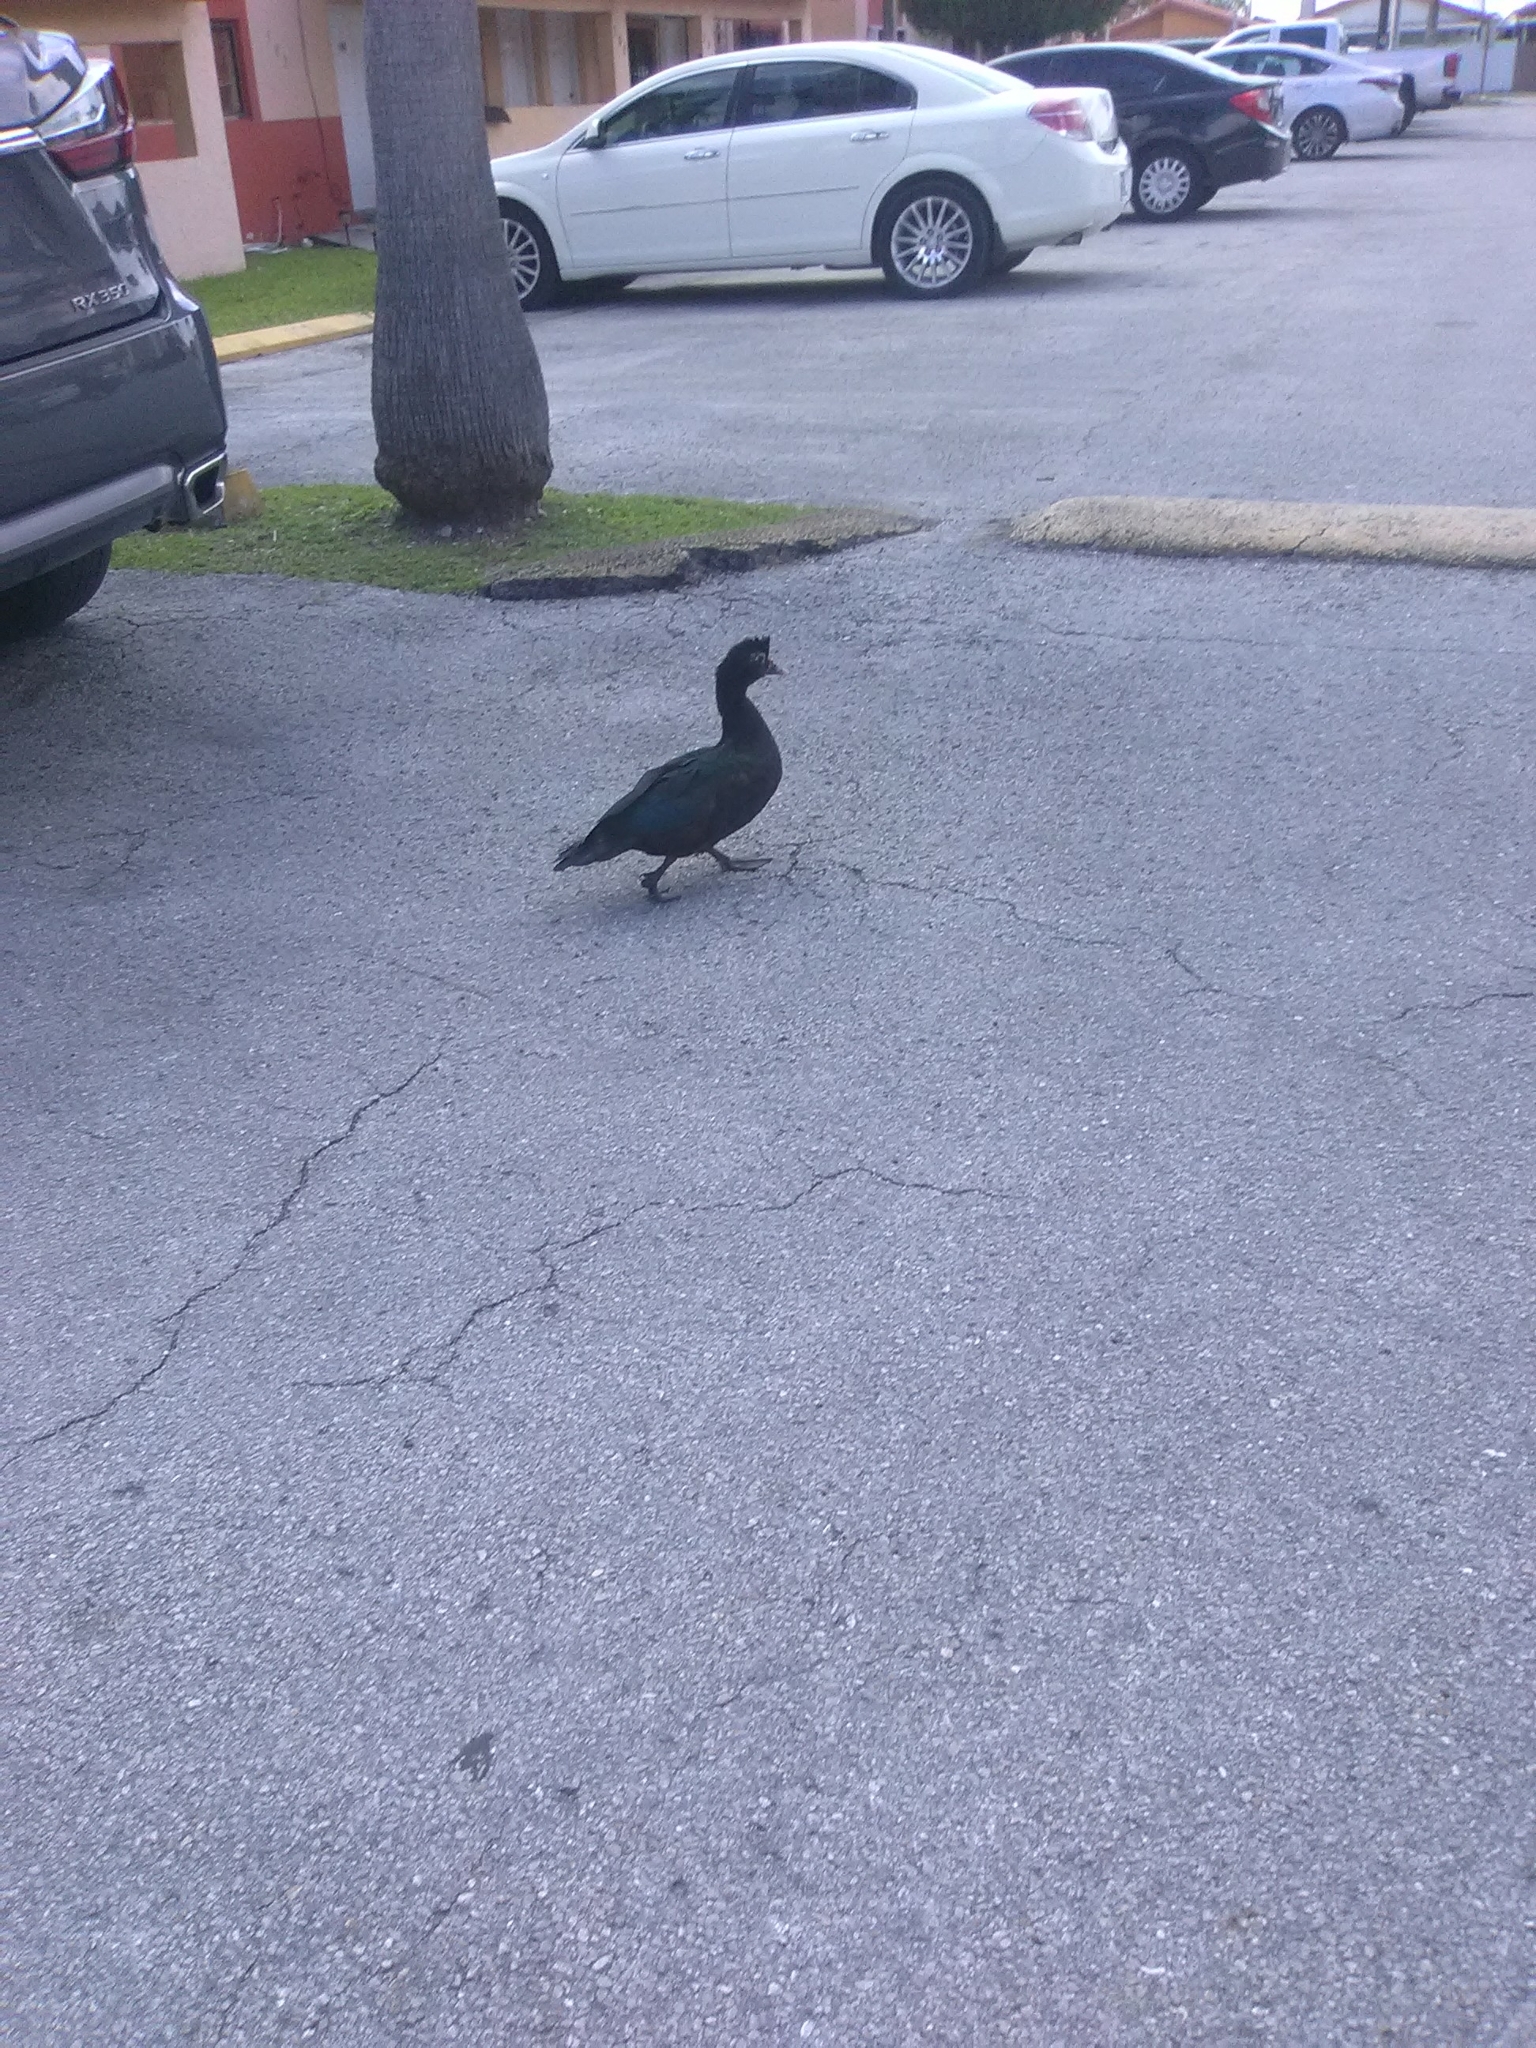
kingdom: Animalia
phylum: Chordata
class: Aves
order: Anseriformes
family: Anatidae
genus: Cairina
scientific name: Cairina moschata
